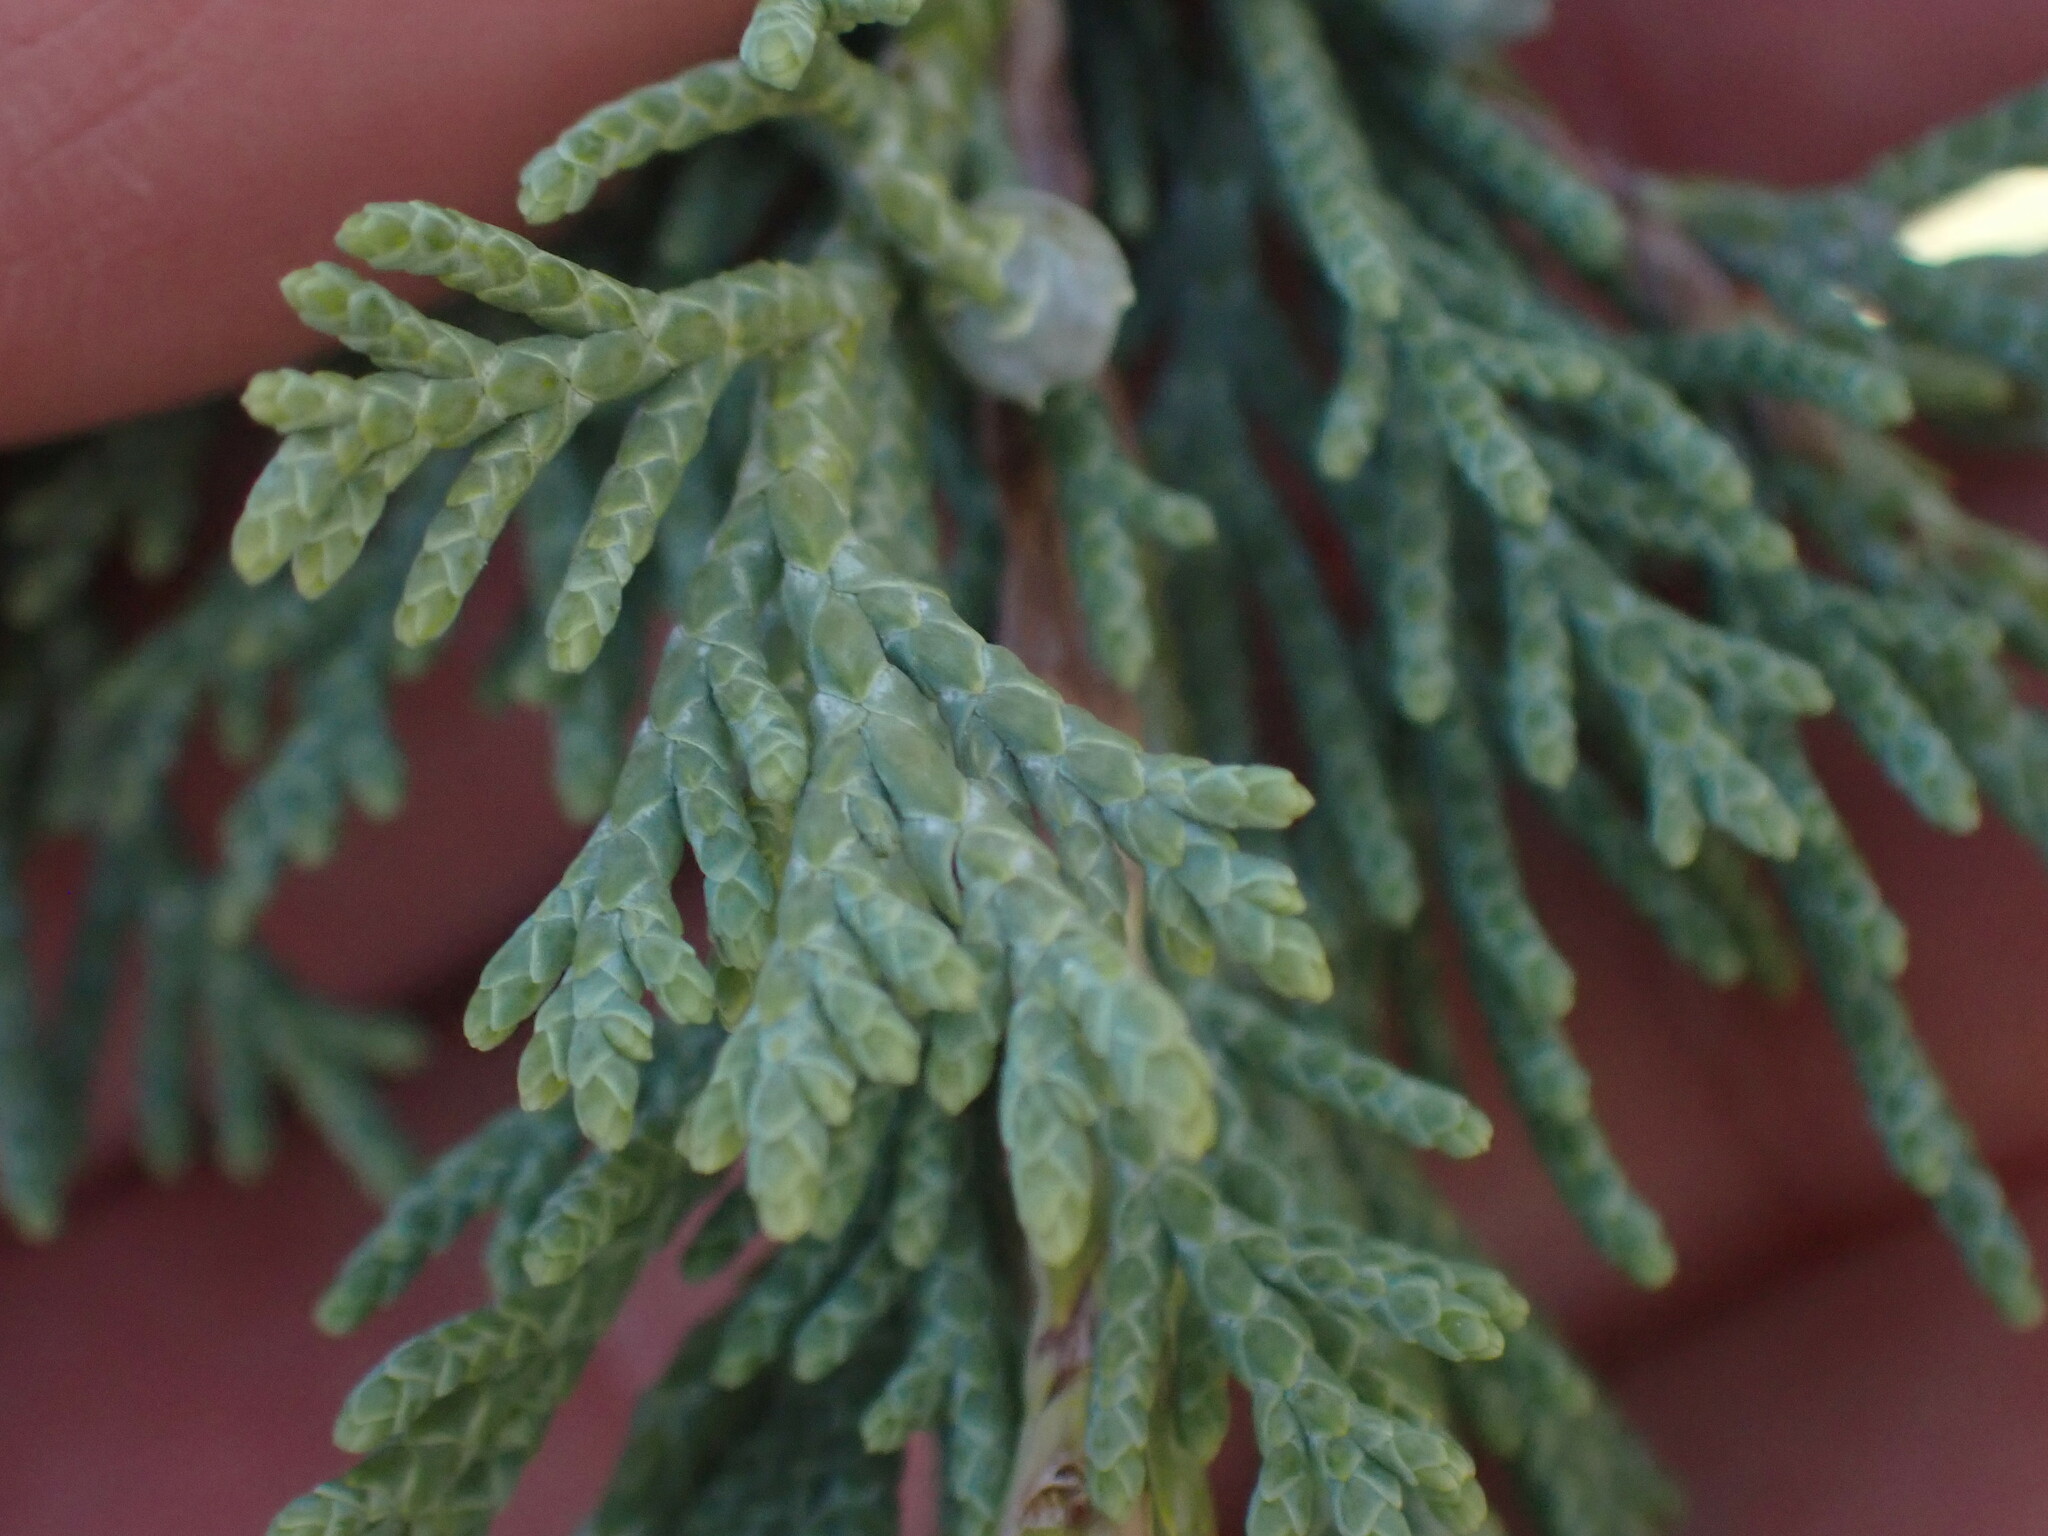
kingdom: Plantae
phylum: Tracheophyta
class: Pinopsida
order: Pinales
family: Cupressaceae
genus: Juniperus
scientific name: Juniperus scopulorum
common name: Rocky mountain juniper
